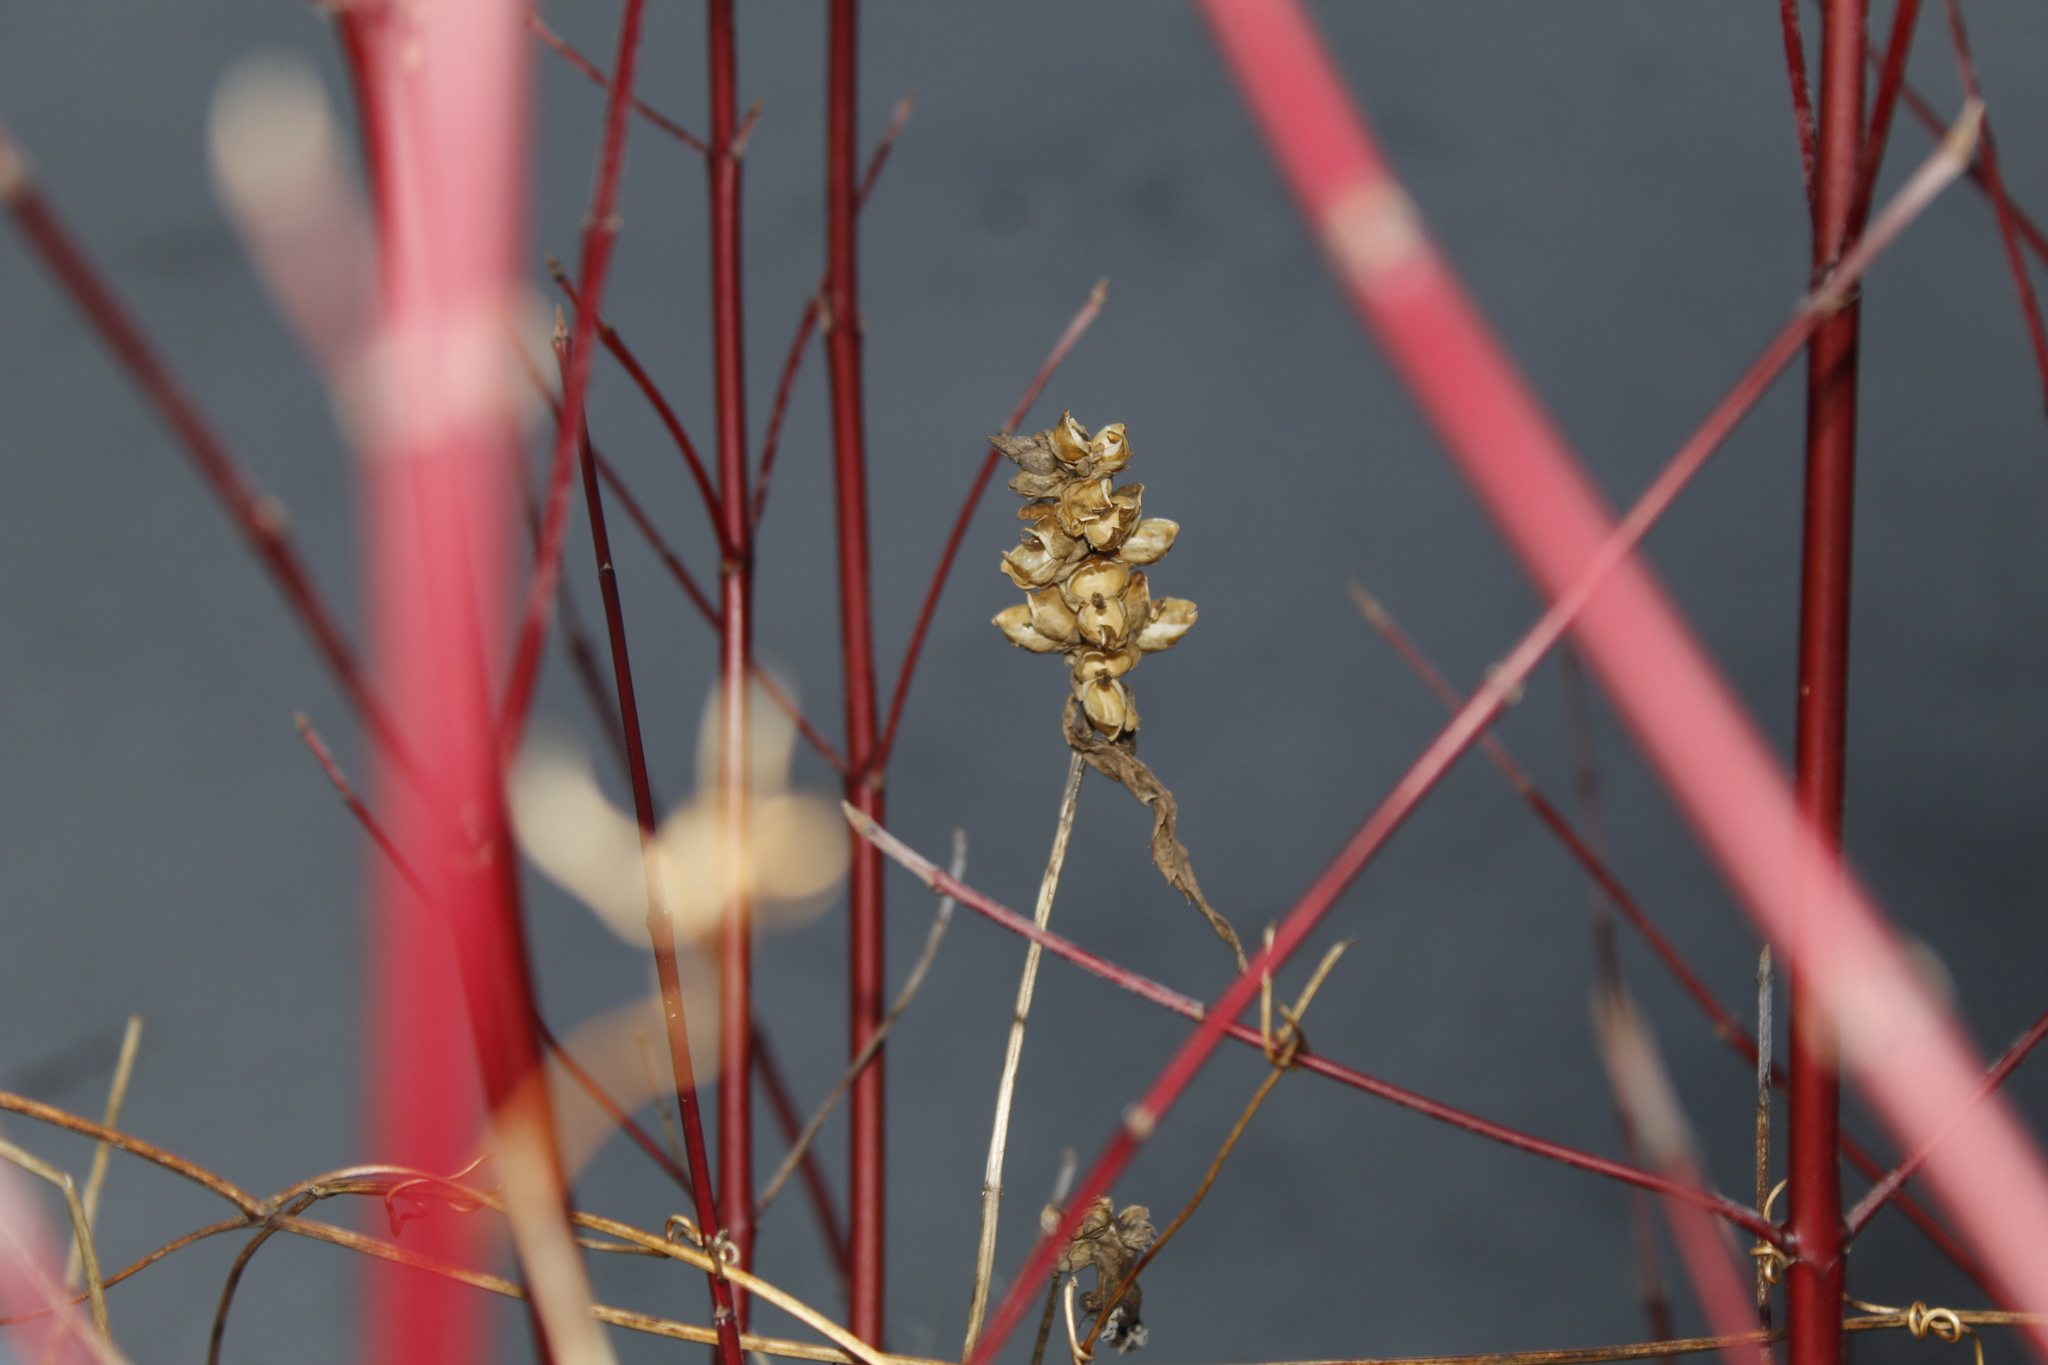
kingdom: Plantae
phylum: Tracheophyta
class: Magnoliopsida
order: Lamiales
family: Plantaginaceae
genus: Chelone
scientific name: Chelone glabra
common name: Snakehead
